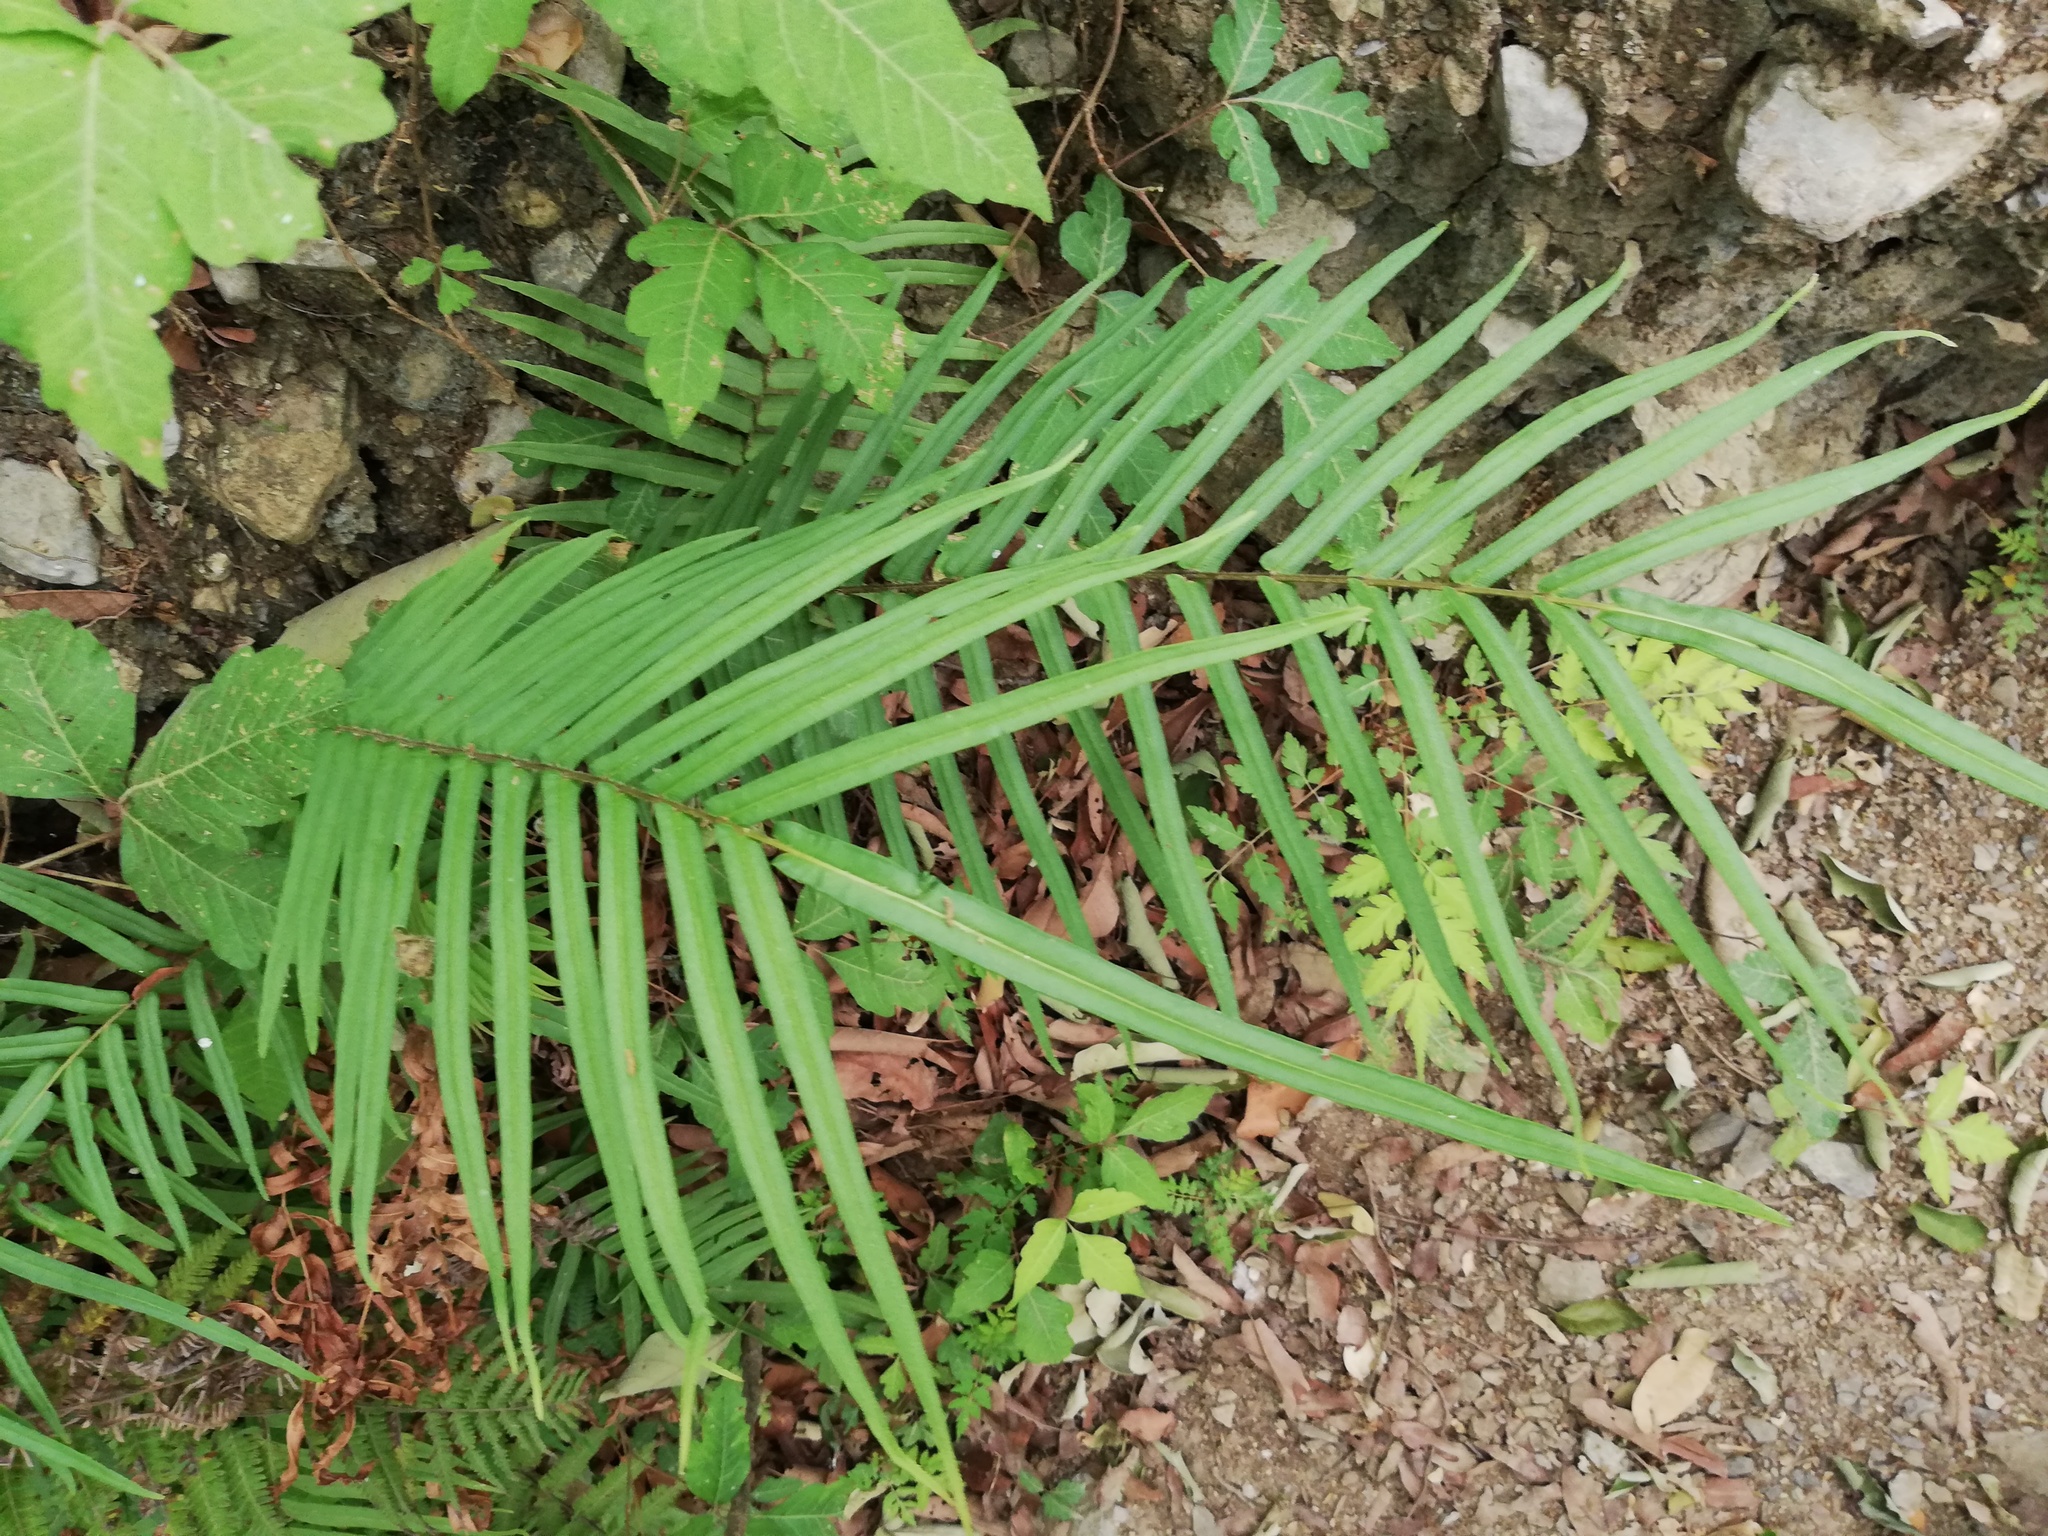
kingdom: Plantae
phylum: Tracheophyta
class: Polypodiopsida
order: Polypodiales
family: Pteridaceae
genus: Pteris
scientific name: Pteris vittata
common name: Ladder brake
